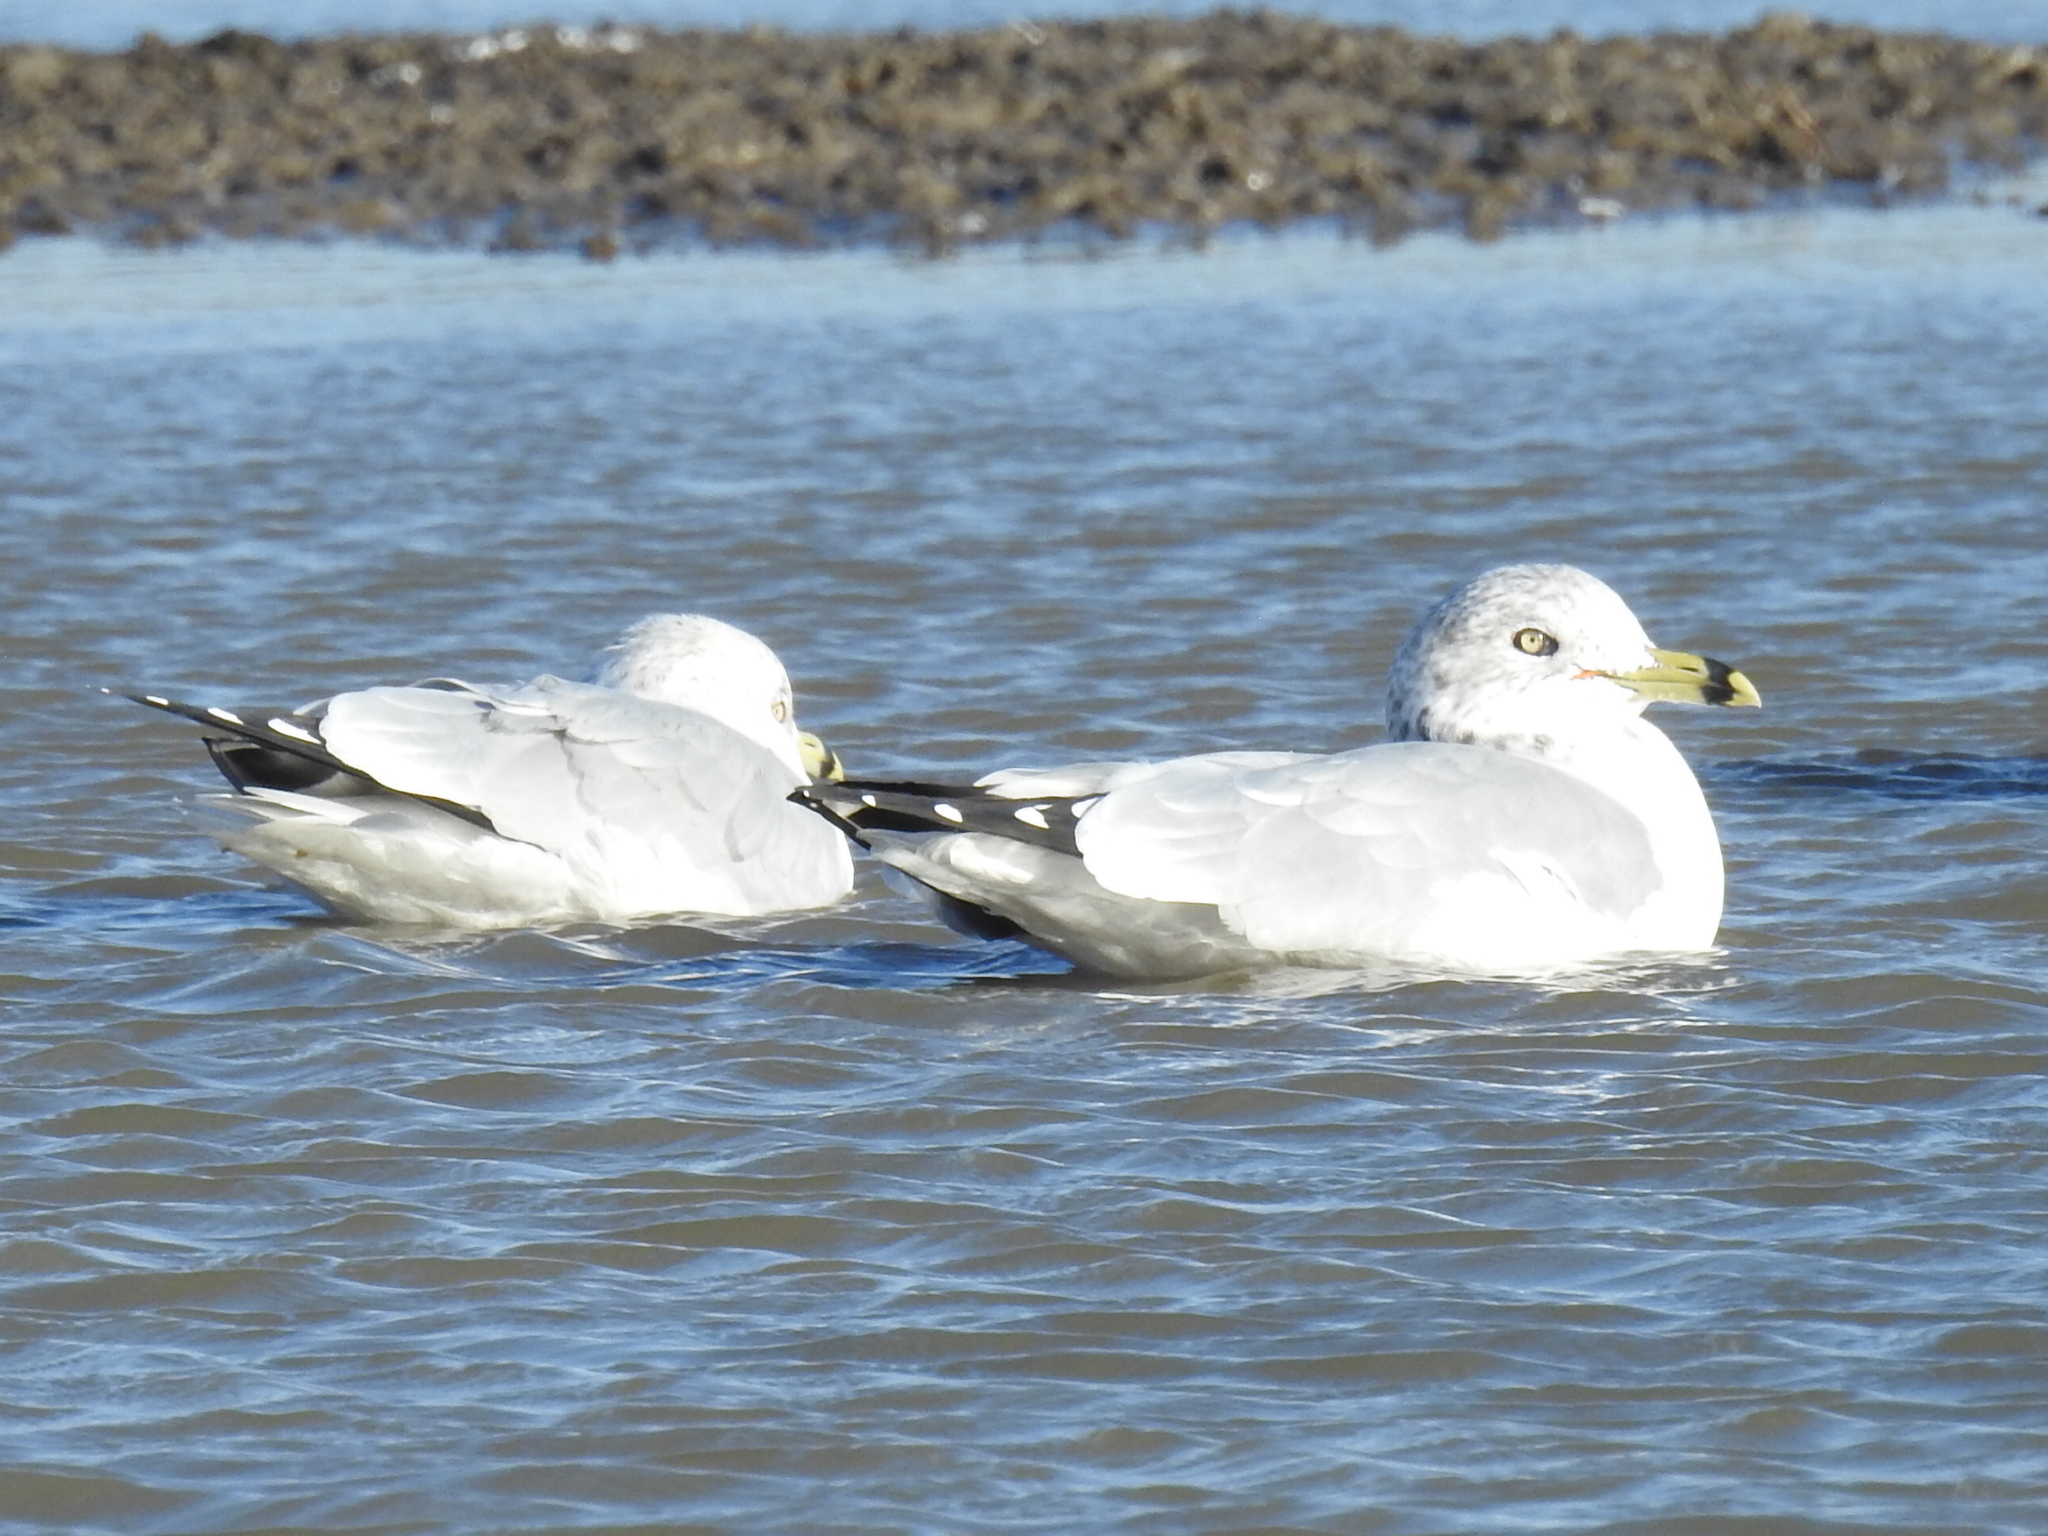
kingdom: Animalia
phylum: Chordata
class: Aves
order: Charadriiformes
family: Laridae
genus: Larus
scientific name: Larus delawarensis
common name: Ring-billed gull
